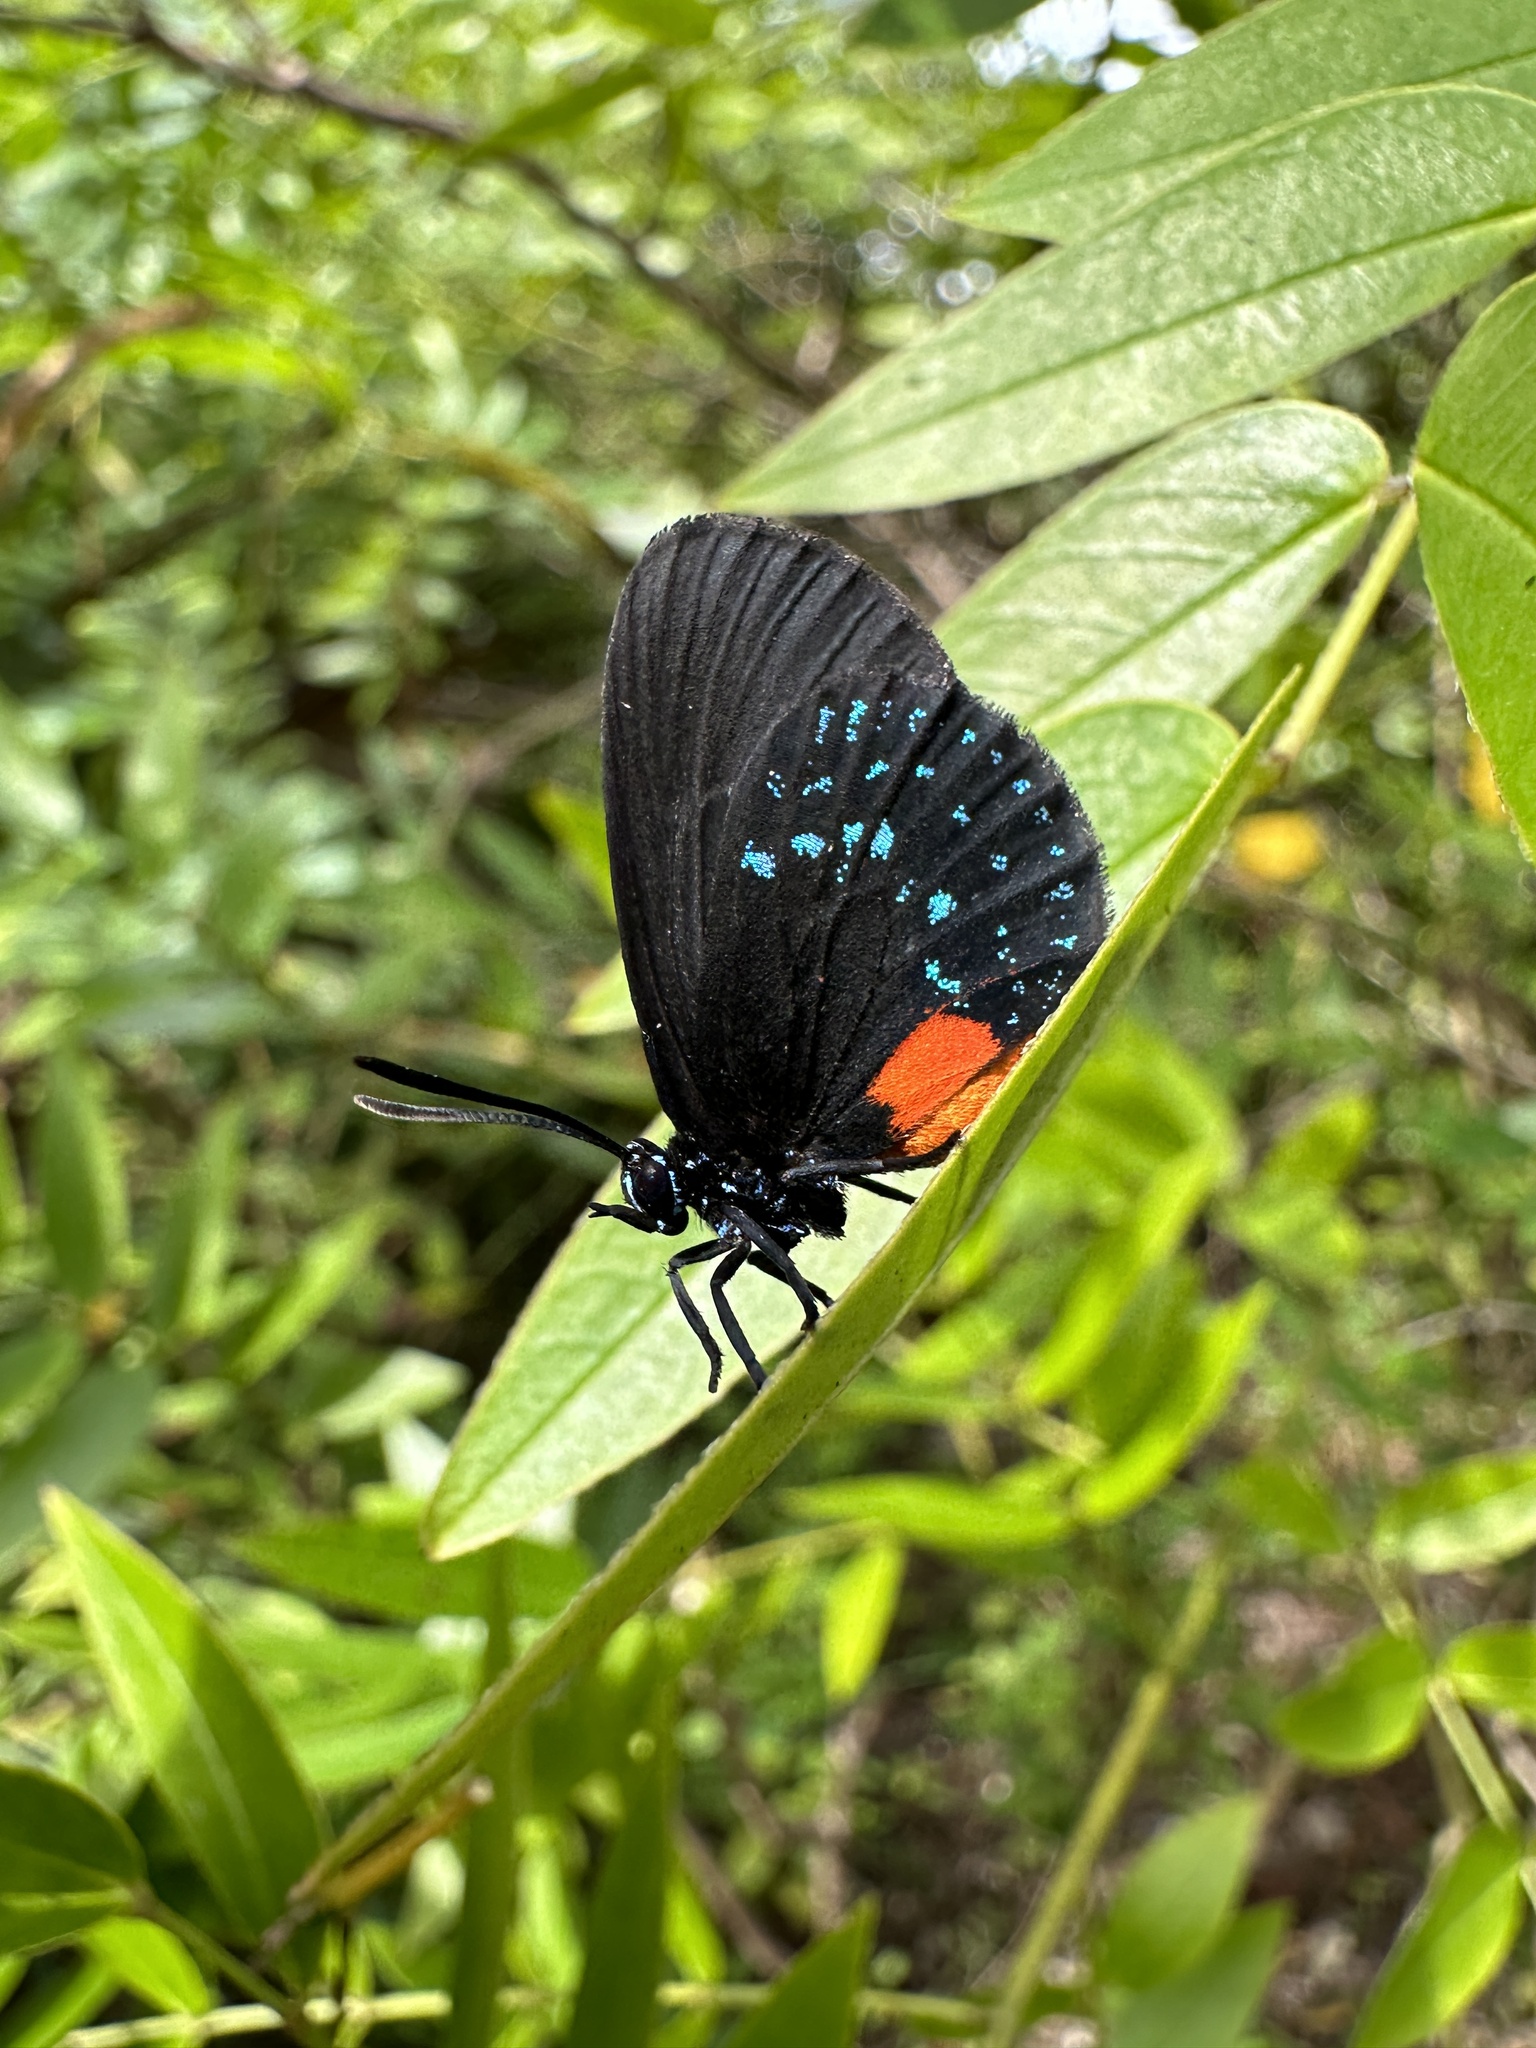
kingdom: Animalia
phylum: Arthropoda
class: Insecta
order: Lepidoptera
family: Lycaenidae
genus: Eumaeus
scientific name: Eumaeus atala
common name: Atala
